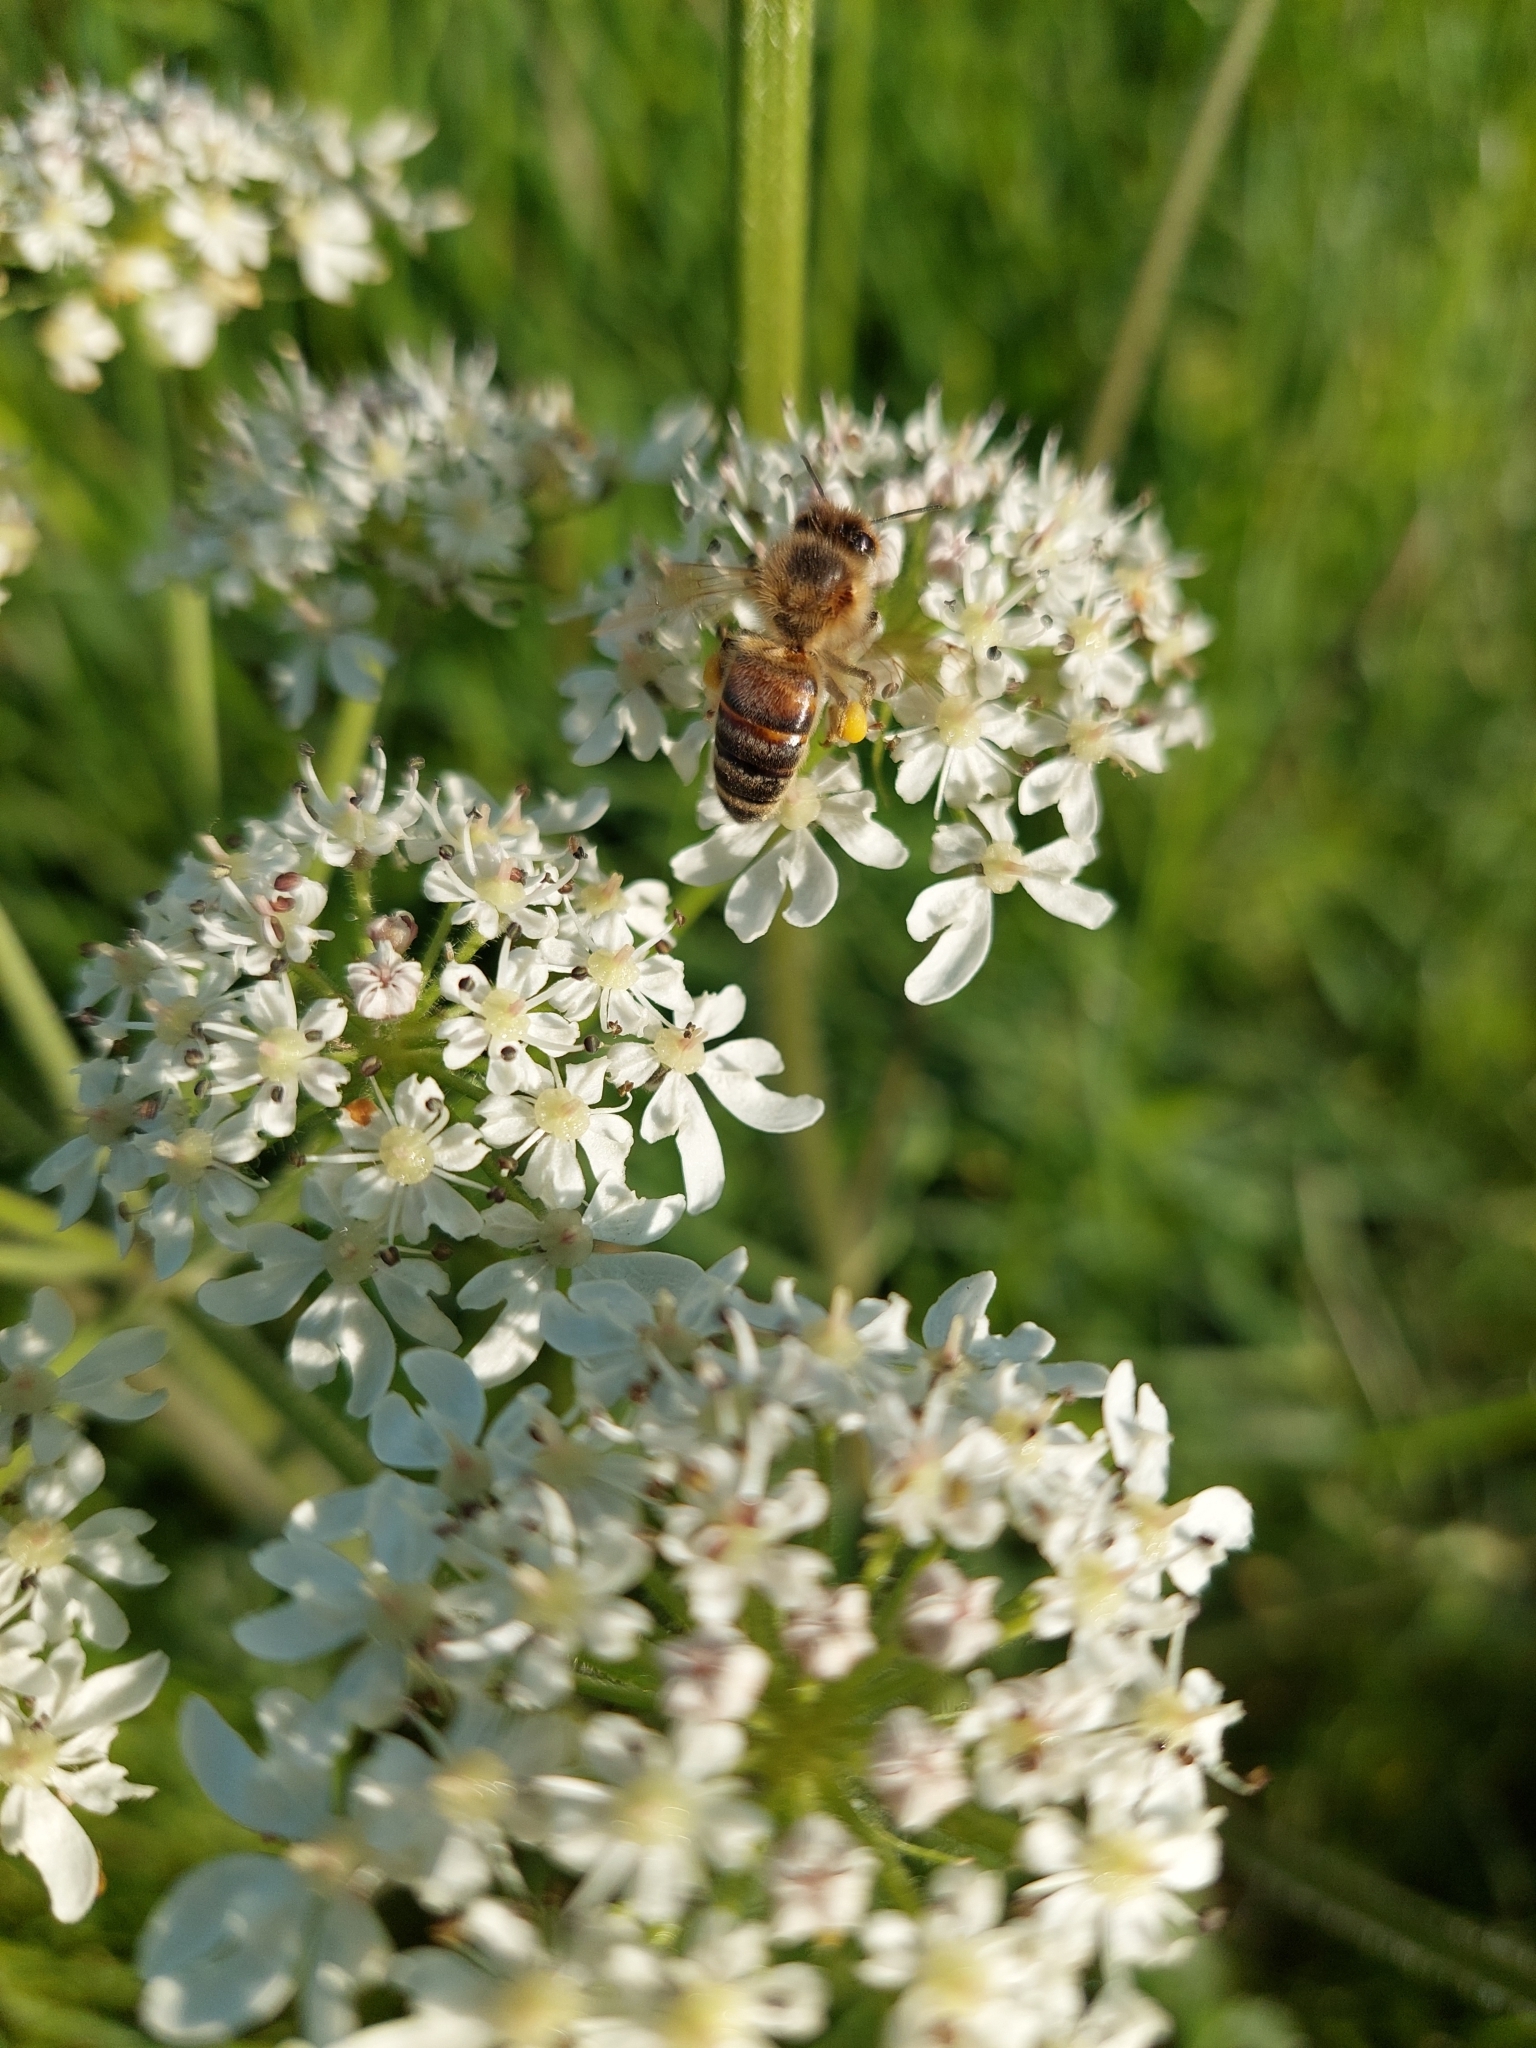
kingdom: Animalia
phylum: Arthropoda
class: Insecta
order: Hymenoptera
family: Apidae
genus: Apis
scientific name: Apis mellifera
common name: Honey bee
